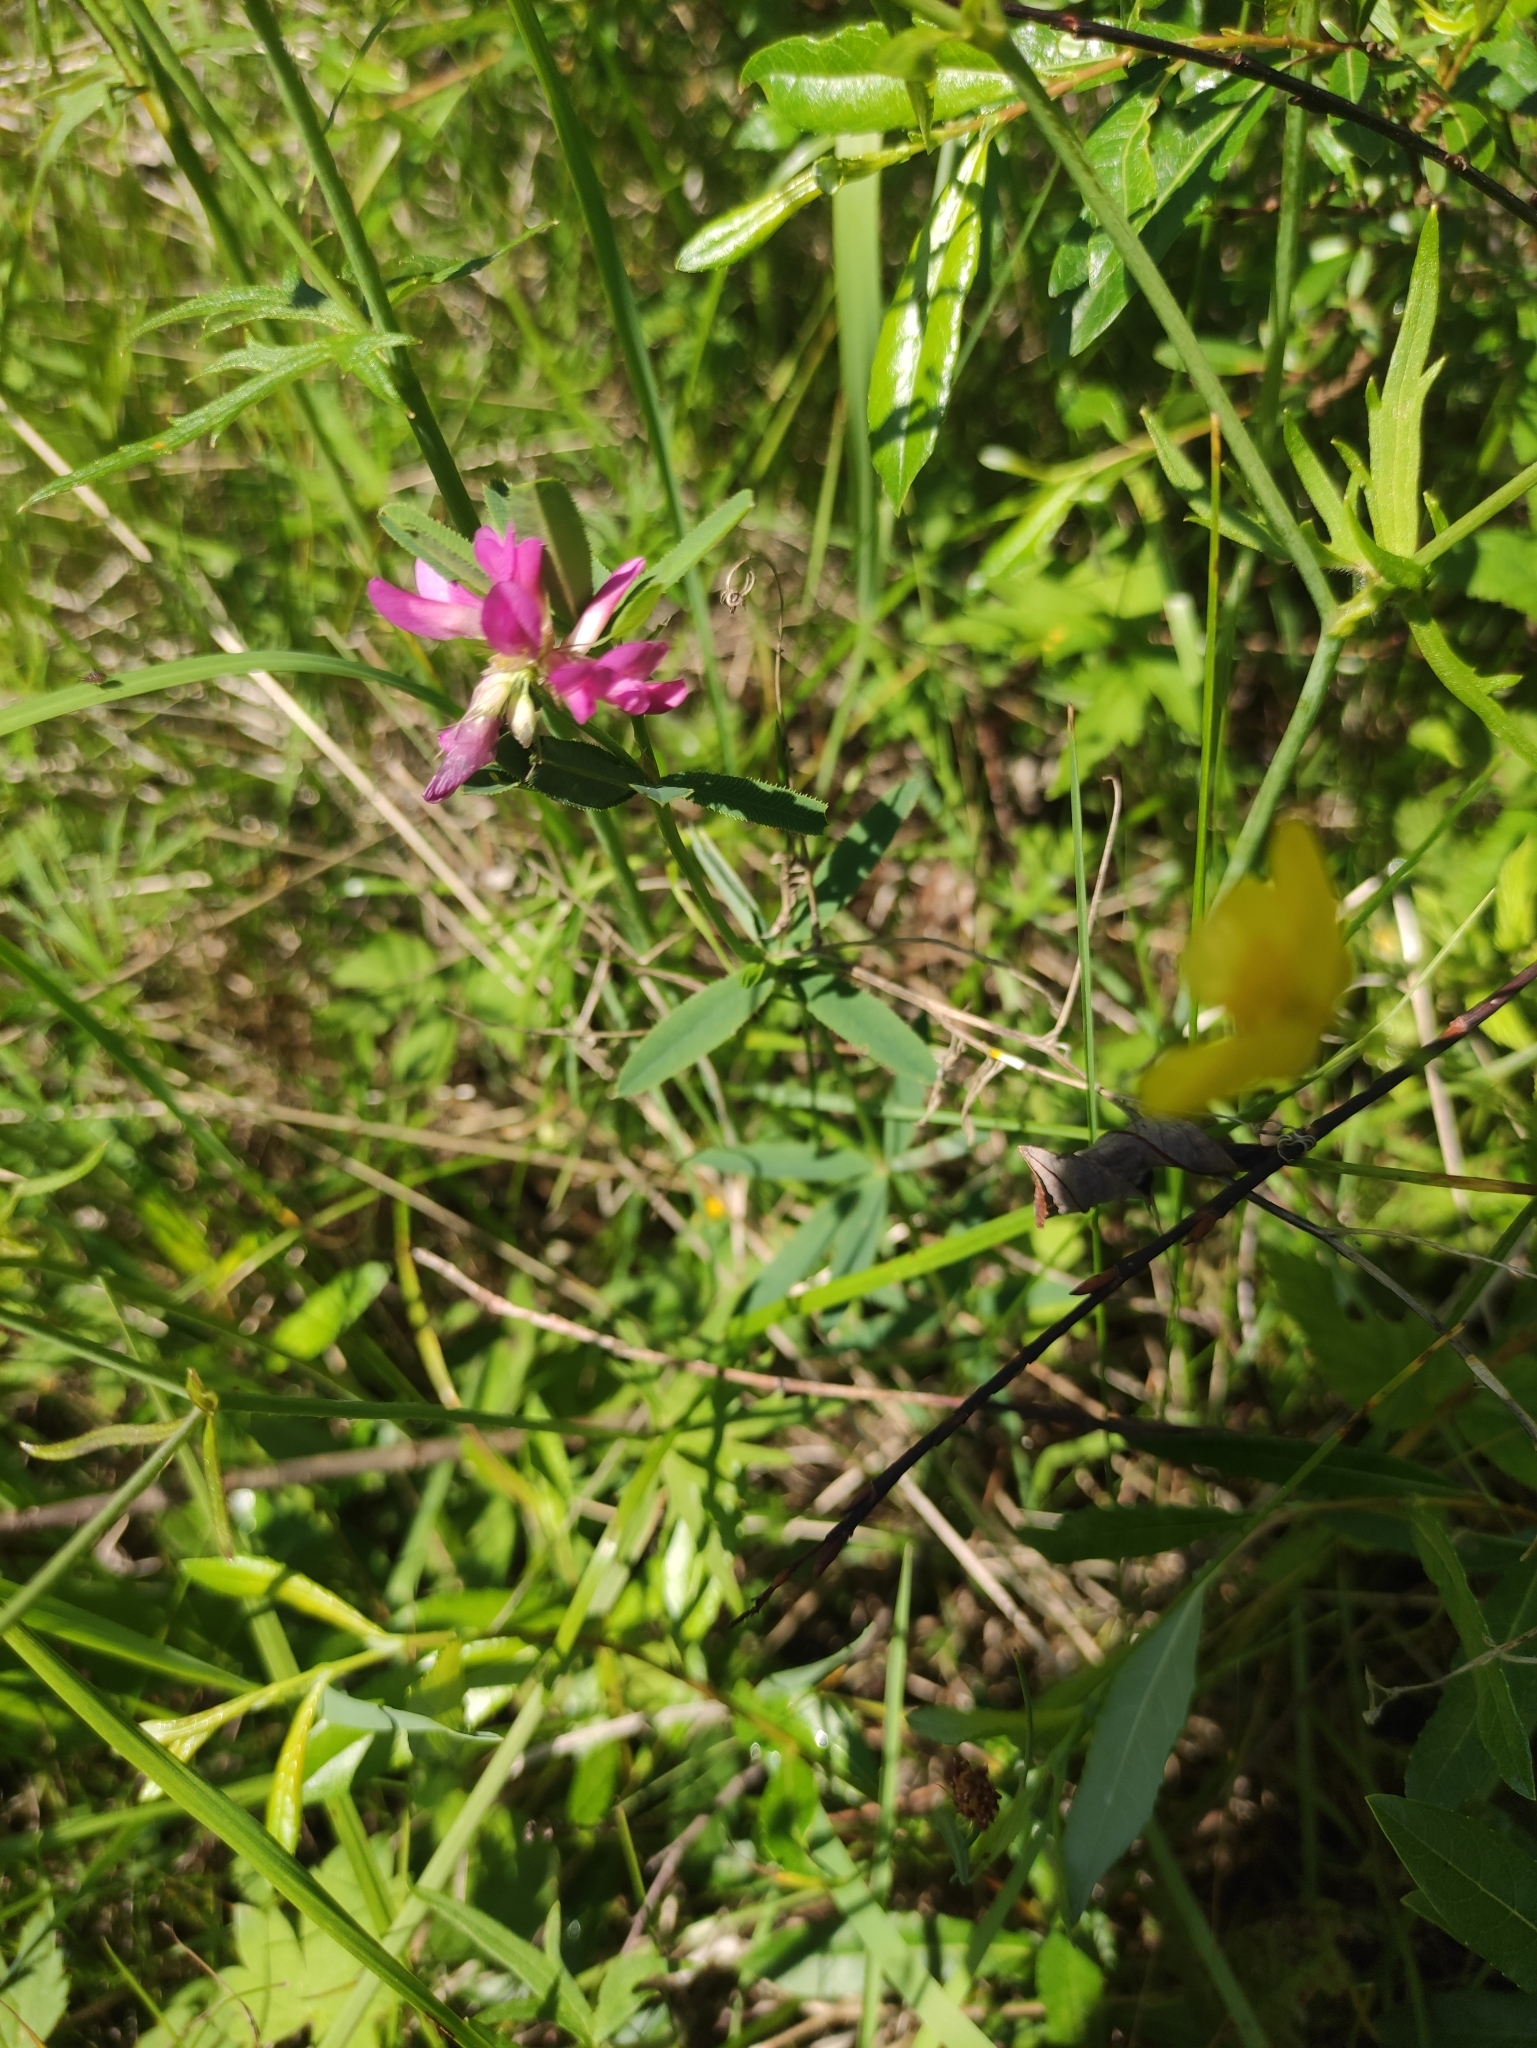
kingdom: Plantae
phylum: Tracheophyta
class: Magnoliopsida
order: Fabales
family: Fabaceae
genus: Trifolium
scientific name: Trifolium lupinaster
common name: Lupine clover
